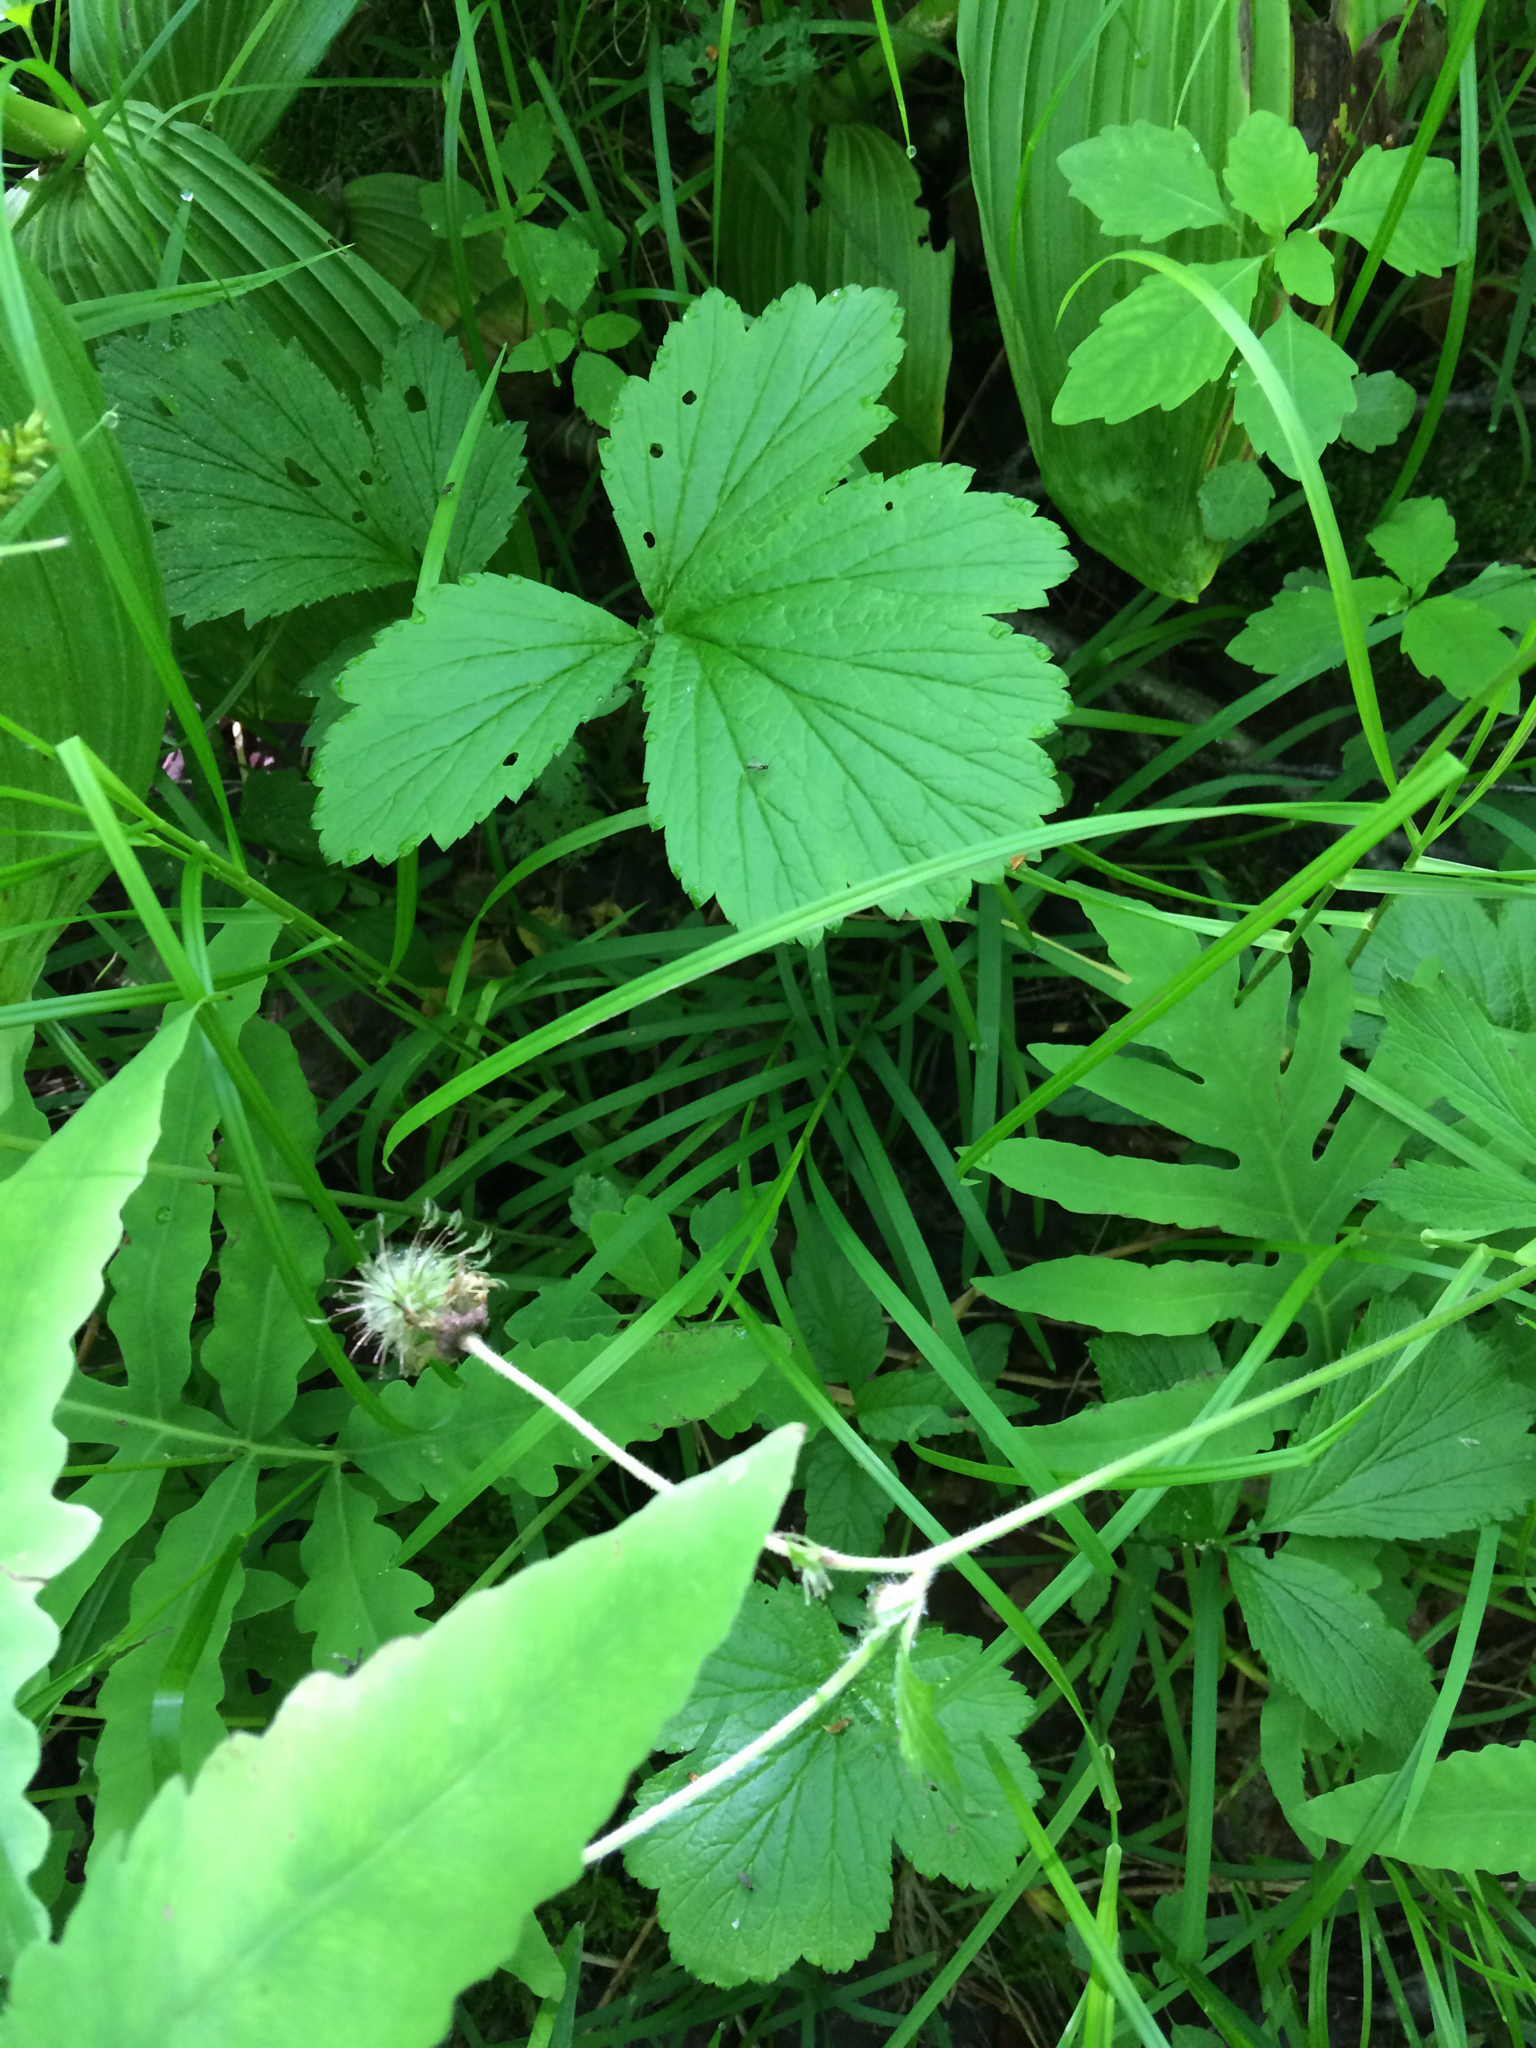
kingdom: Plantae
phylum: Tracheophyta
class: Magnoliopsida
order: Rosales
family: Rosaceae
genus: Geum
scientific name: Geum rivale
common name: Water avens
